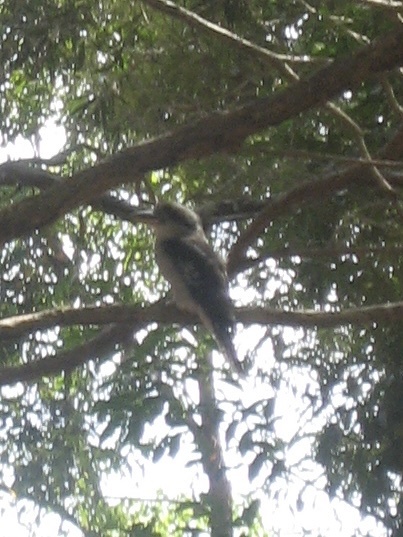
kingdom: Animalia
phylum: Chordata
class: Aves
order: Coraciiformes
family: Alcedinidae
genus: Dacelo
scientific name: Dacelo novaeguineae
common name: Laughing kookaburra
